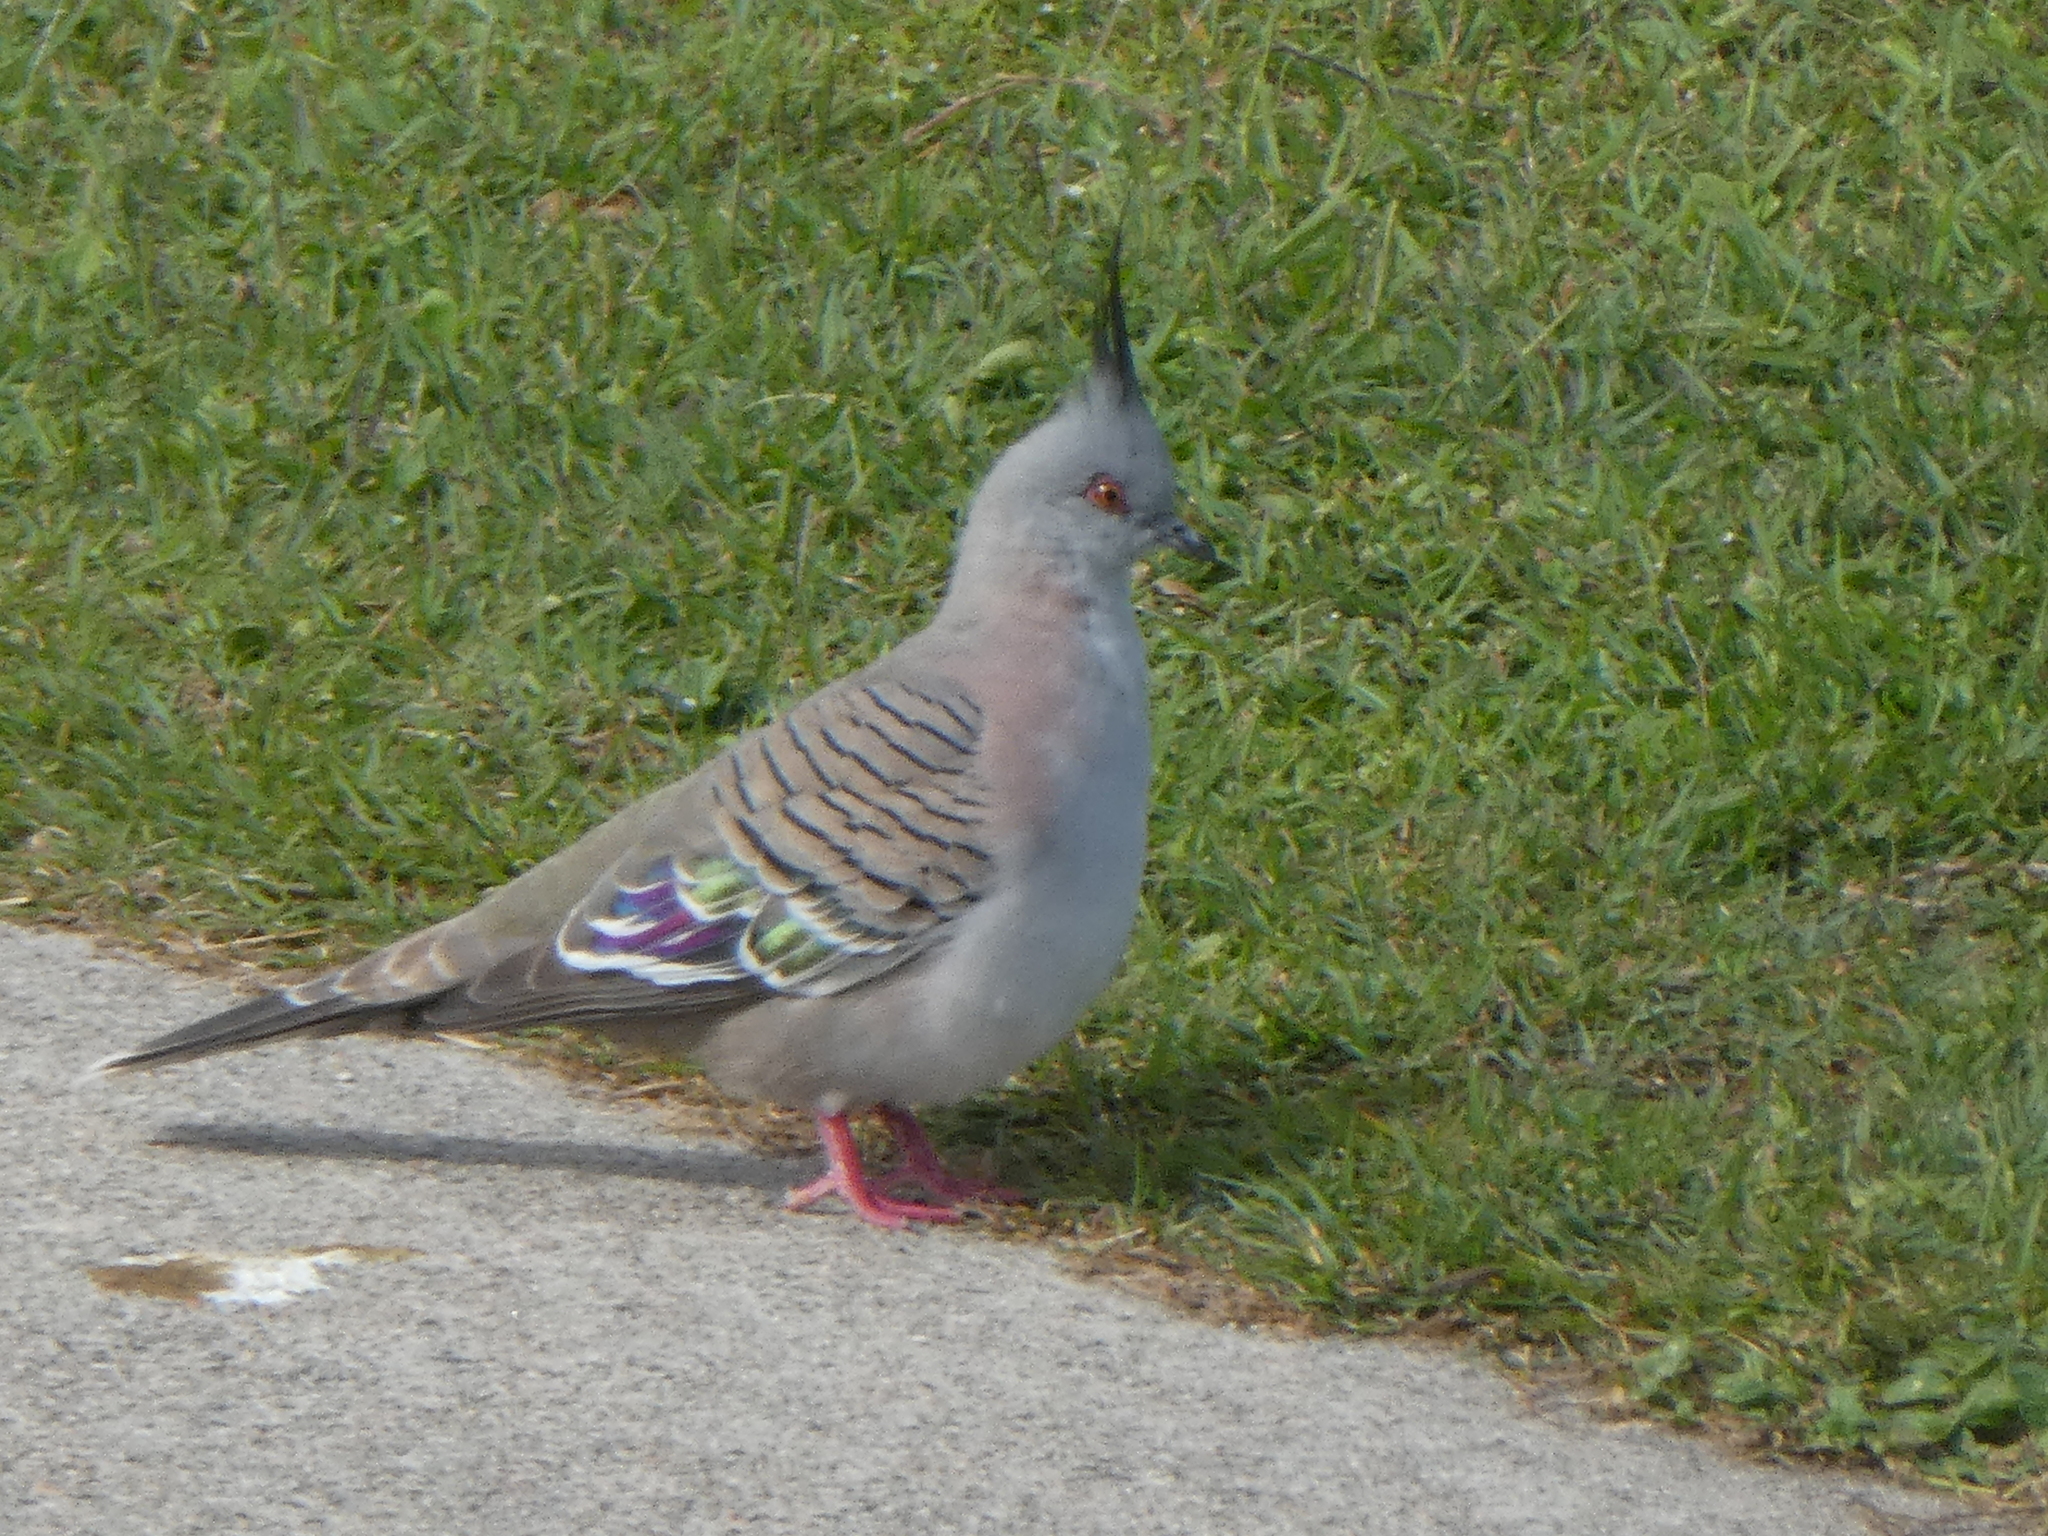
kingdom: Animalia
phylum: Chordata
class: Aves
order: Columbiformes
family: Columbidae
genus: Ocyphaps
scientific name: Ocyphaps lophotes
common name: Crested pigeon
